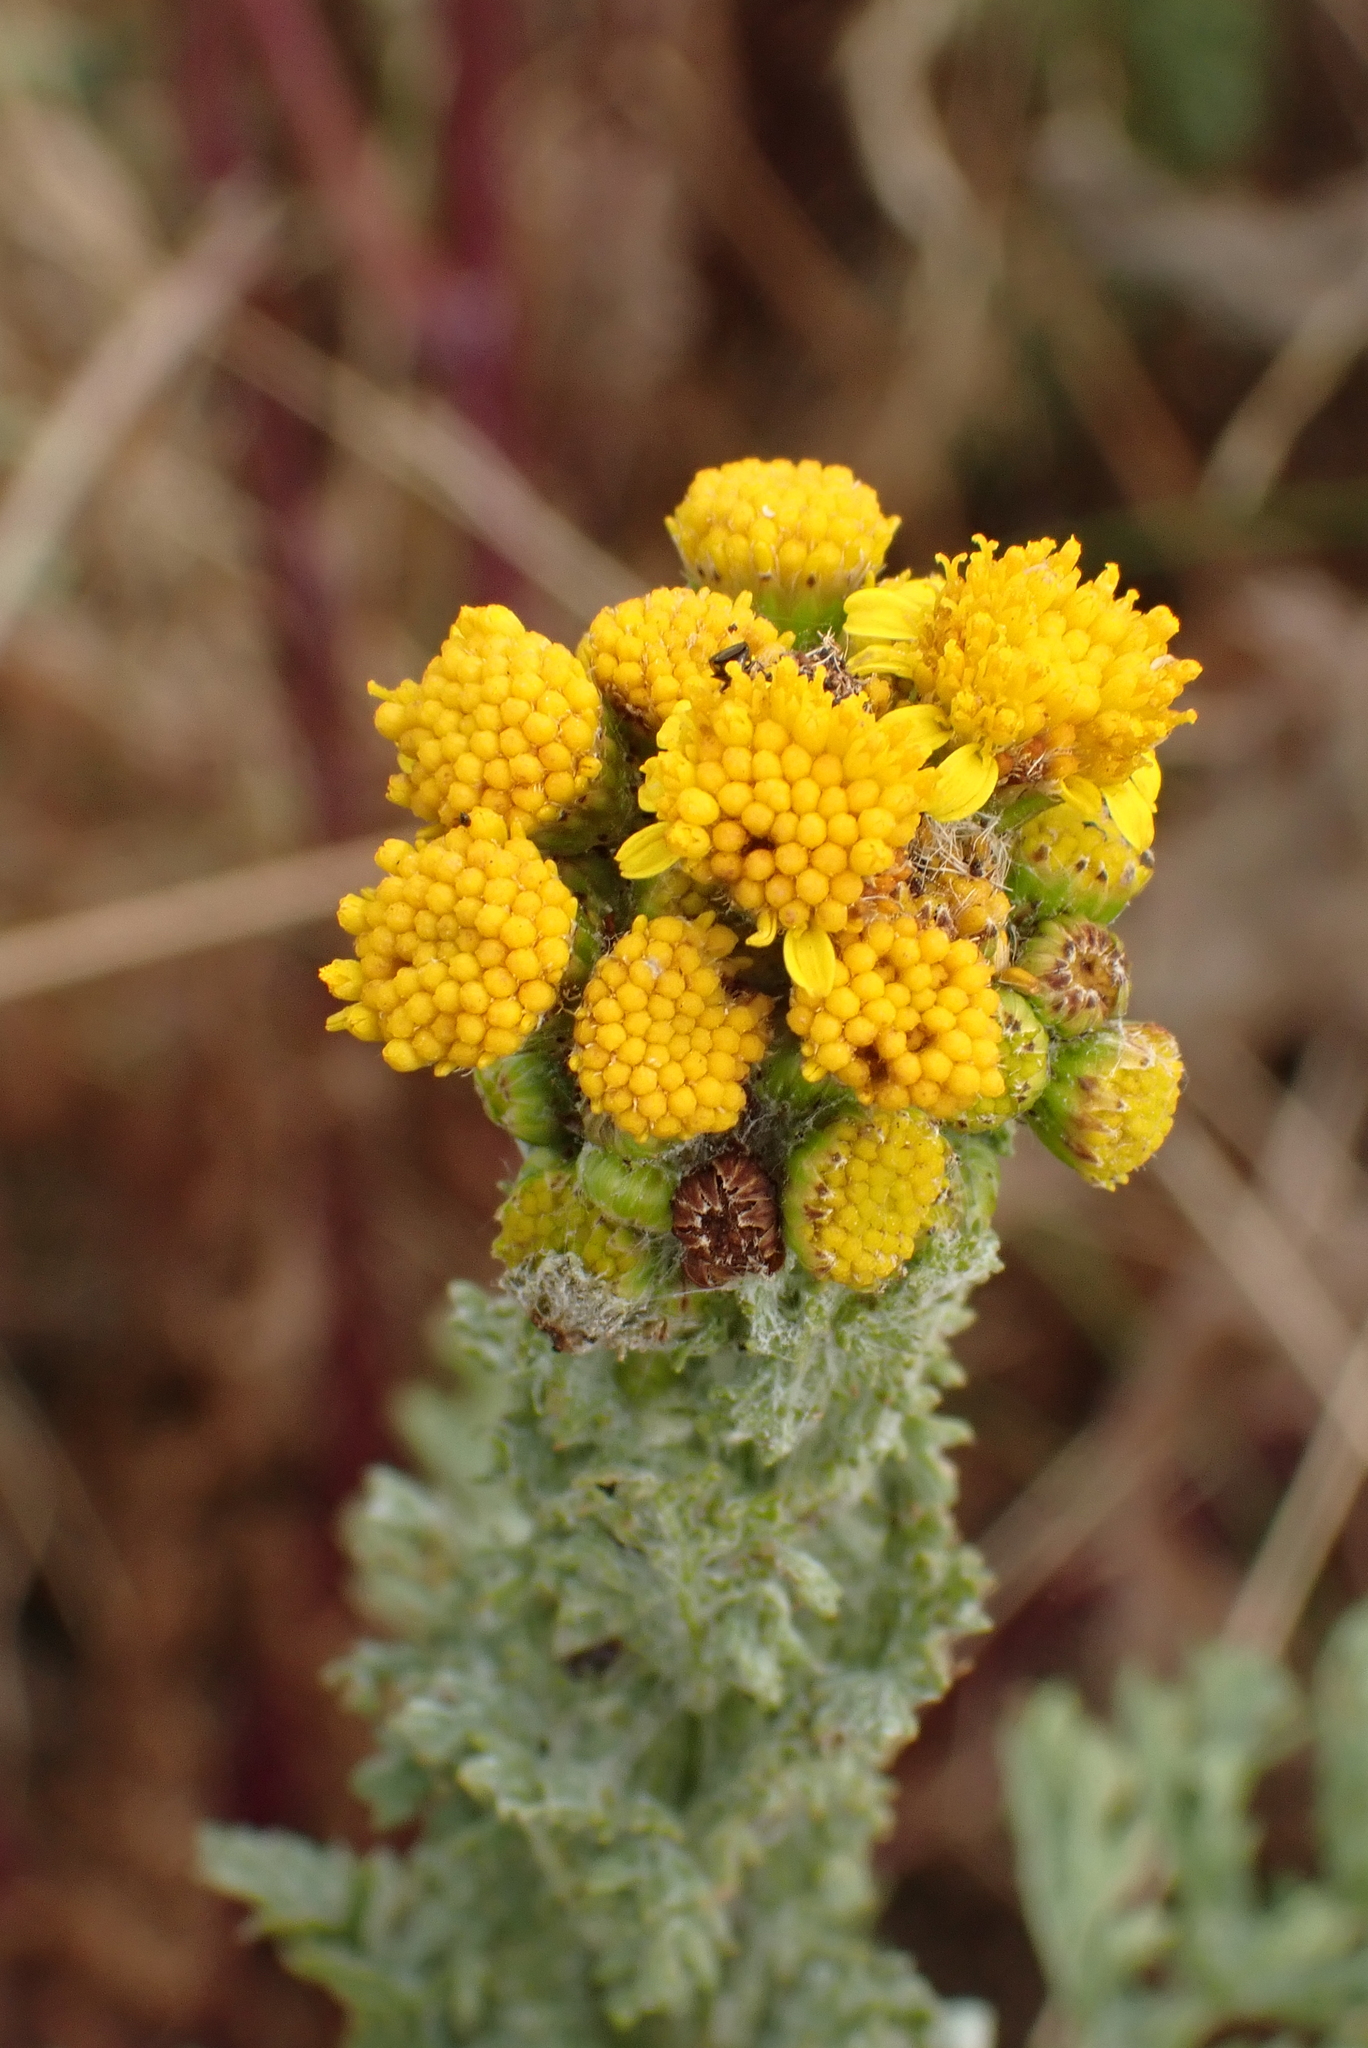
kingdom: Plantae
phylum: Tracheophyta
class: Magnoliopsida
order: Asterales
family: Asteraceae
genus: Jacobaea
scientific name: Jacobaea vulgaris
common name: Stinking willie
